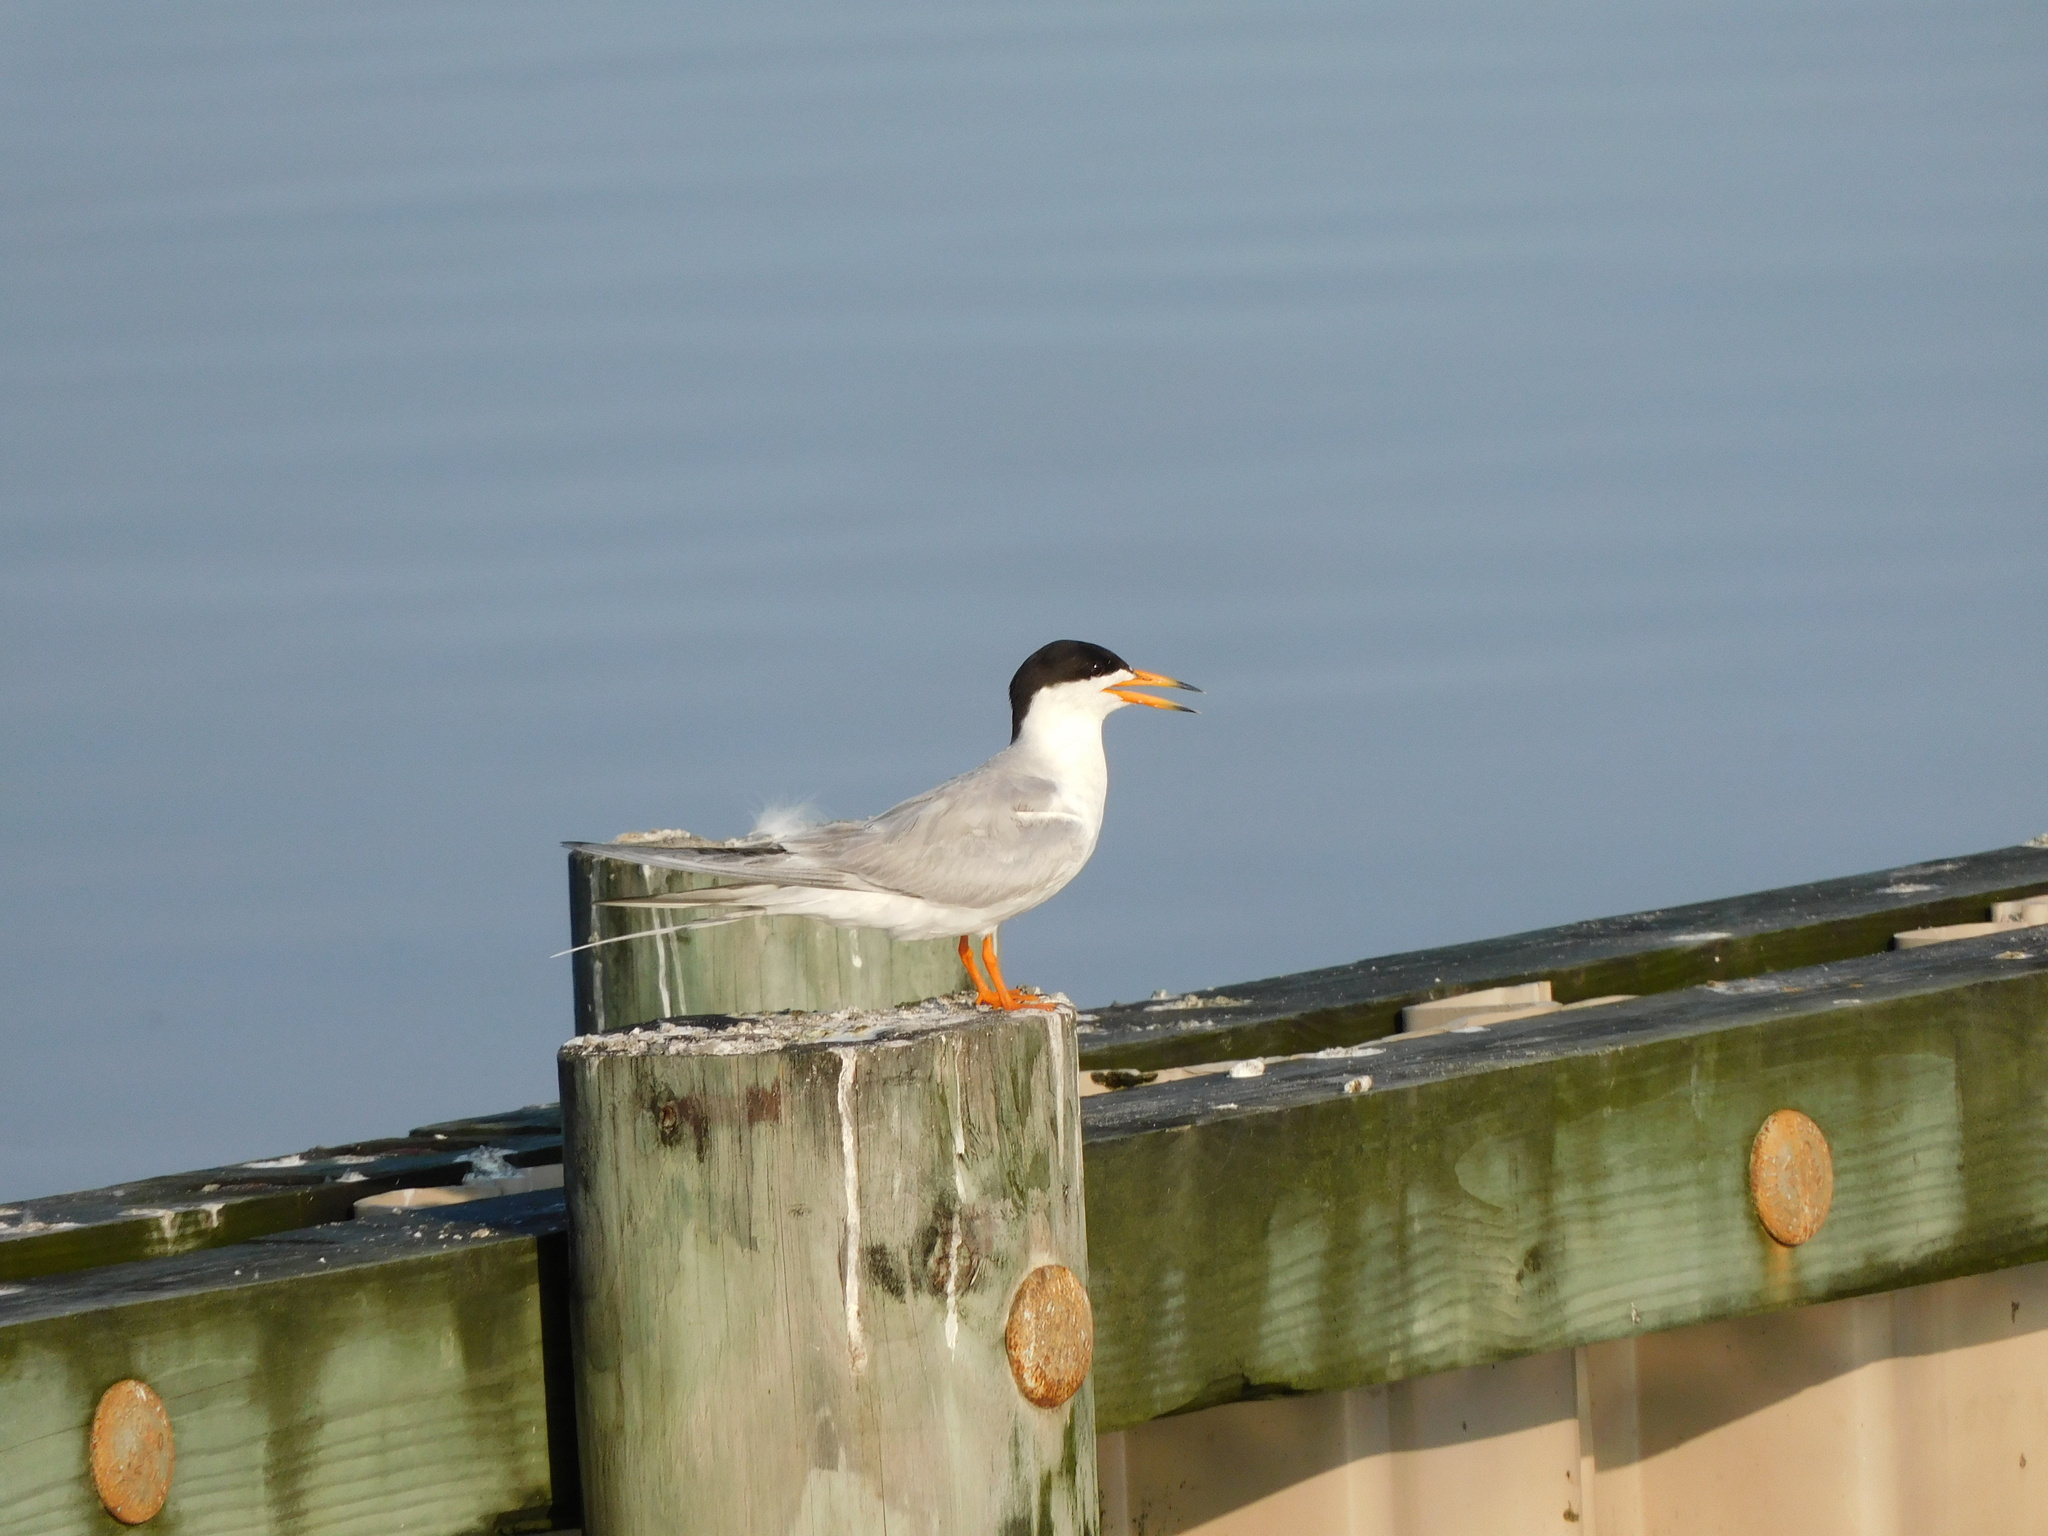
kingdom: Animalia
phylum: Chordata
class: Aves
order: Charadriiformes
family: Laridae
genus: Sterna
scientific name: Sterna forsteri
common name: Forster's tern
